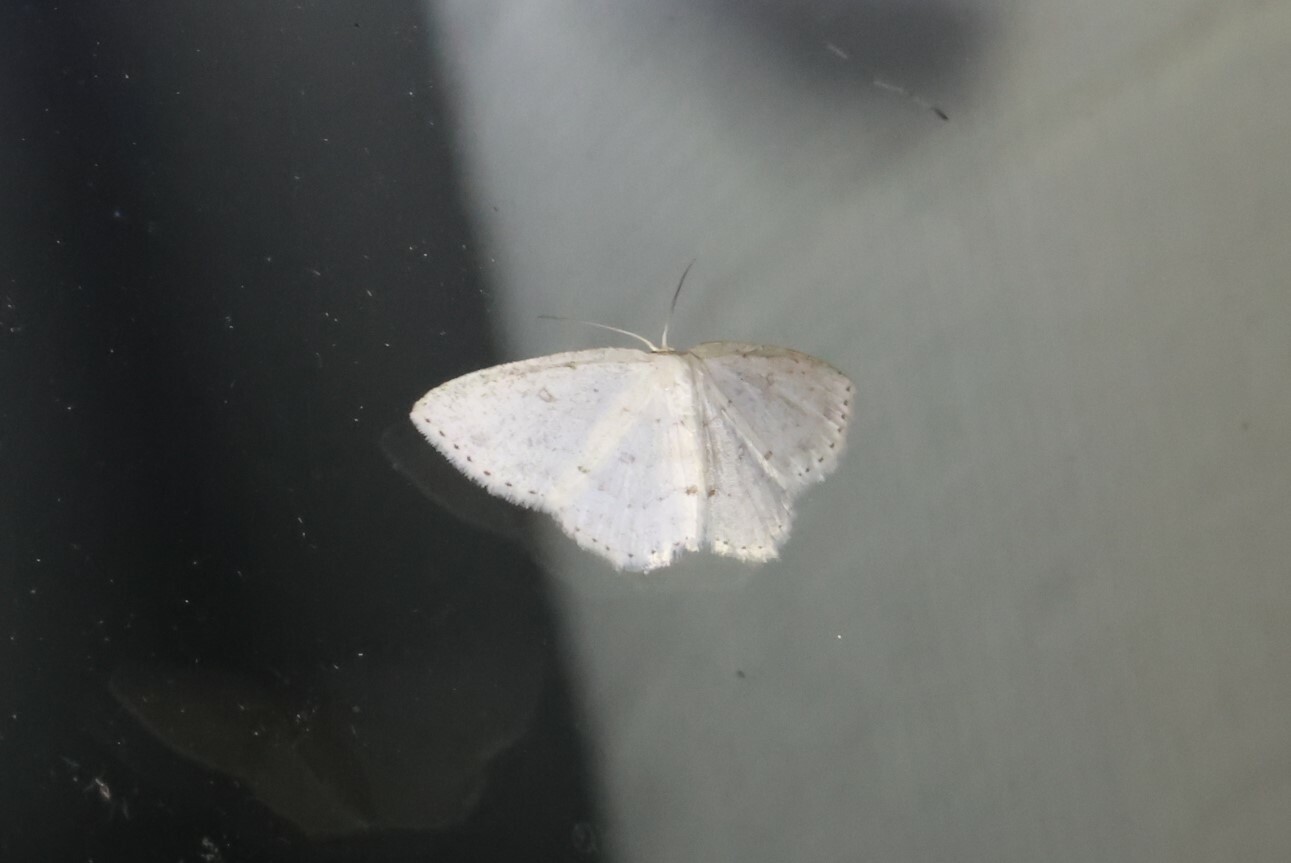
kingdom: Animalia
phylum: Arthropoda
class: Insecta
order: Lepidoptera
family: Geometridae
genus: Cyclophora
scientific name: Cyclophora pendulinaria
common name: Sweet fern geometer
